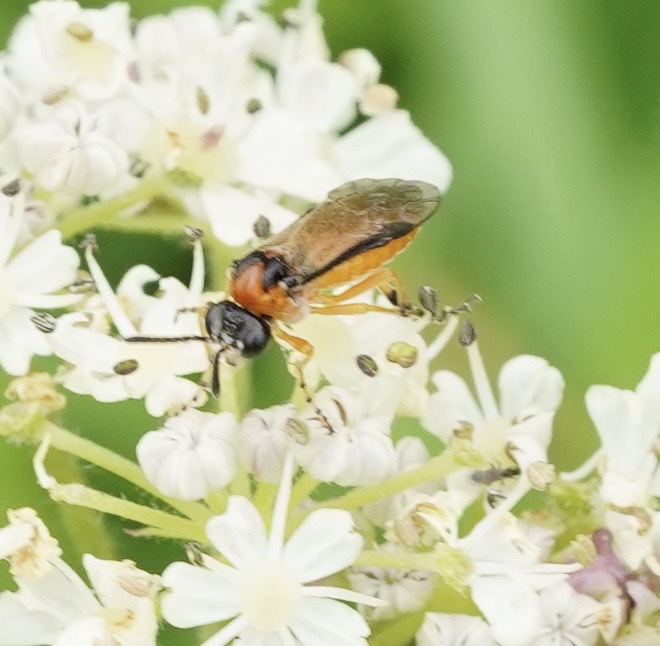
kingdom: Animalia
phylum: Arthropoda
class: Insecta
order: Hymenoptera
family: Tenthredinidae
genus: Athalia
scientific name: Athalia rosae
